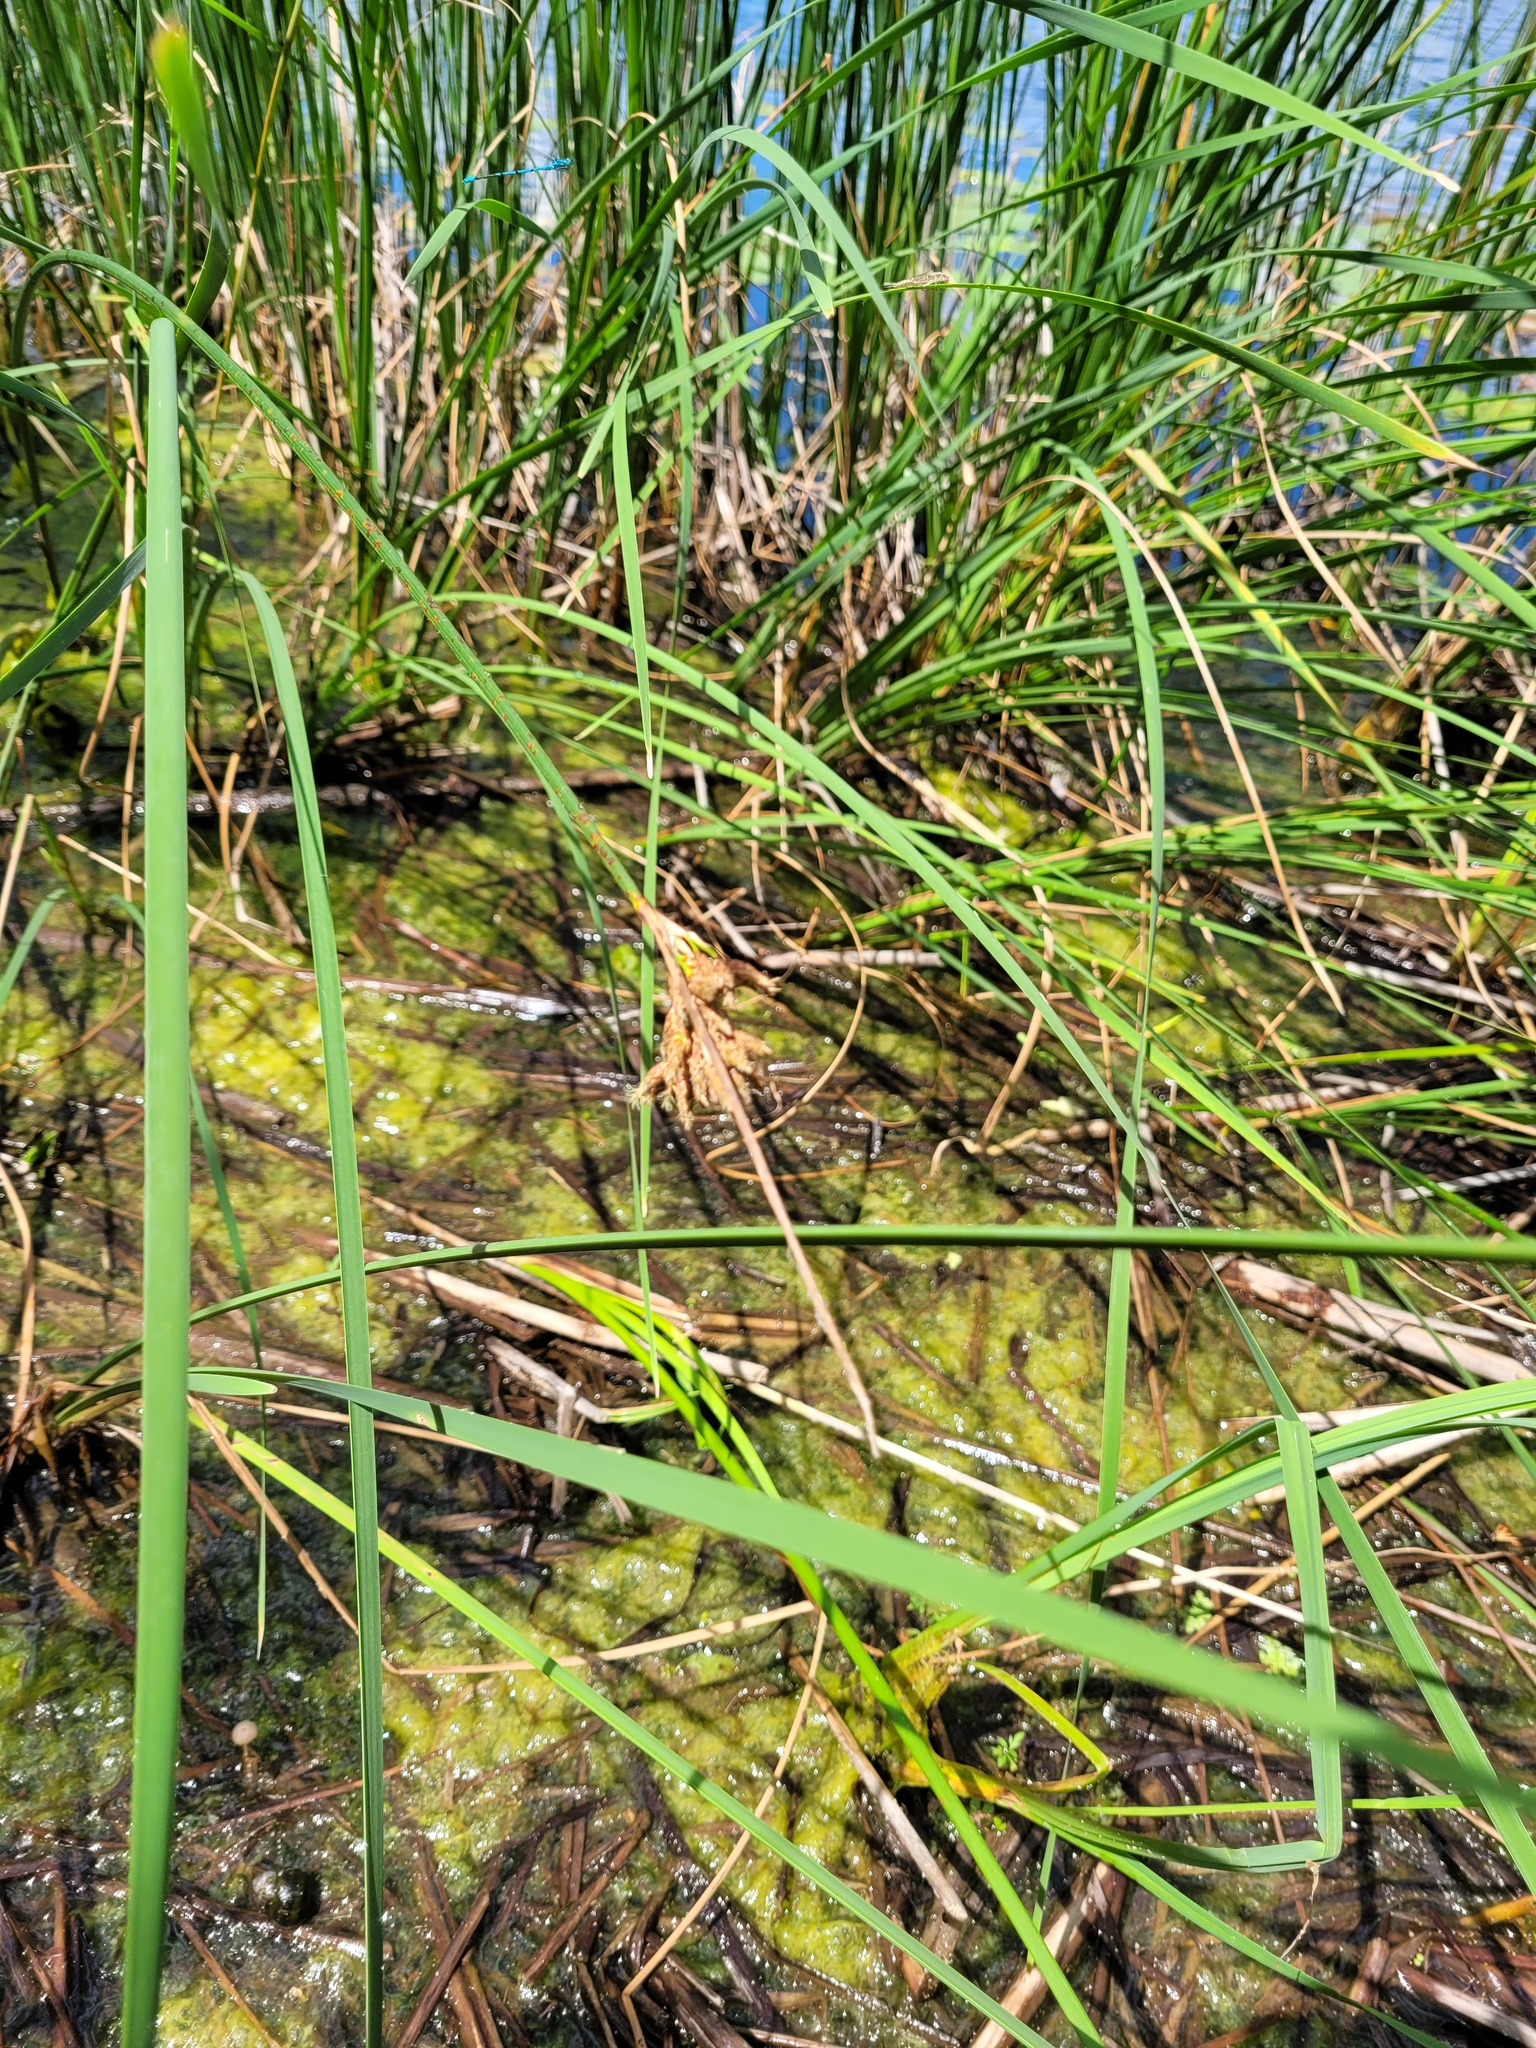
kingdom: Plantae
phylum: Tracheophyta
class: Liliopsida
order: Poales
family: Cyperaceae
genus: Schoenoplectus
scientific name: Schoenoplectus lacustris
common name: Common club-rush
